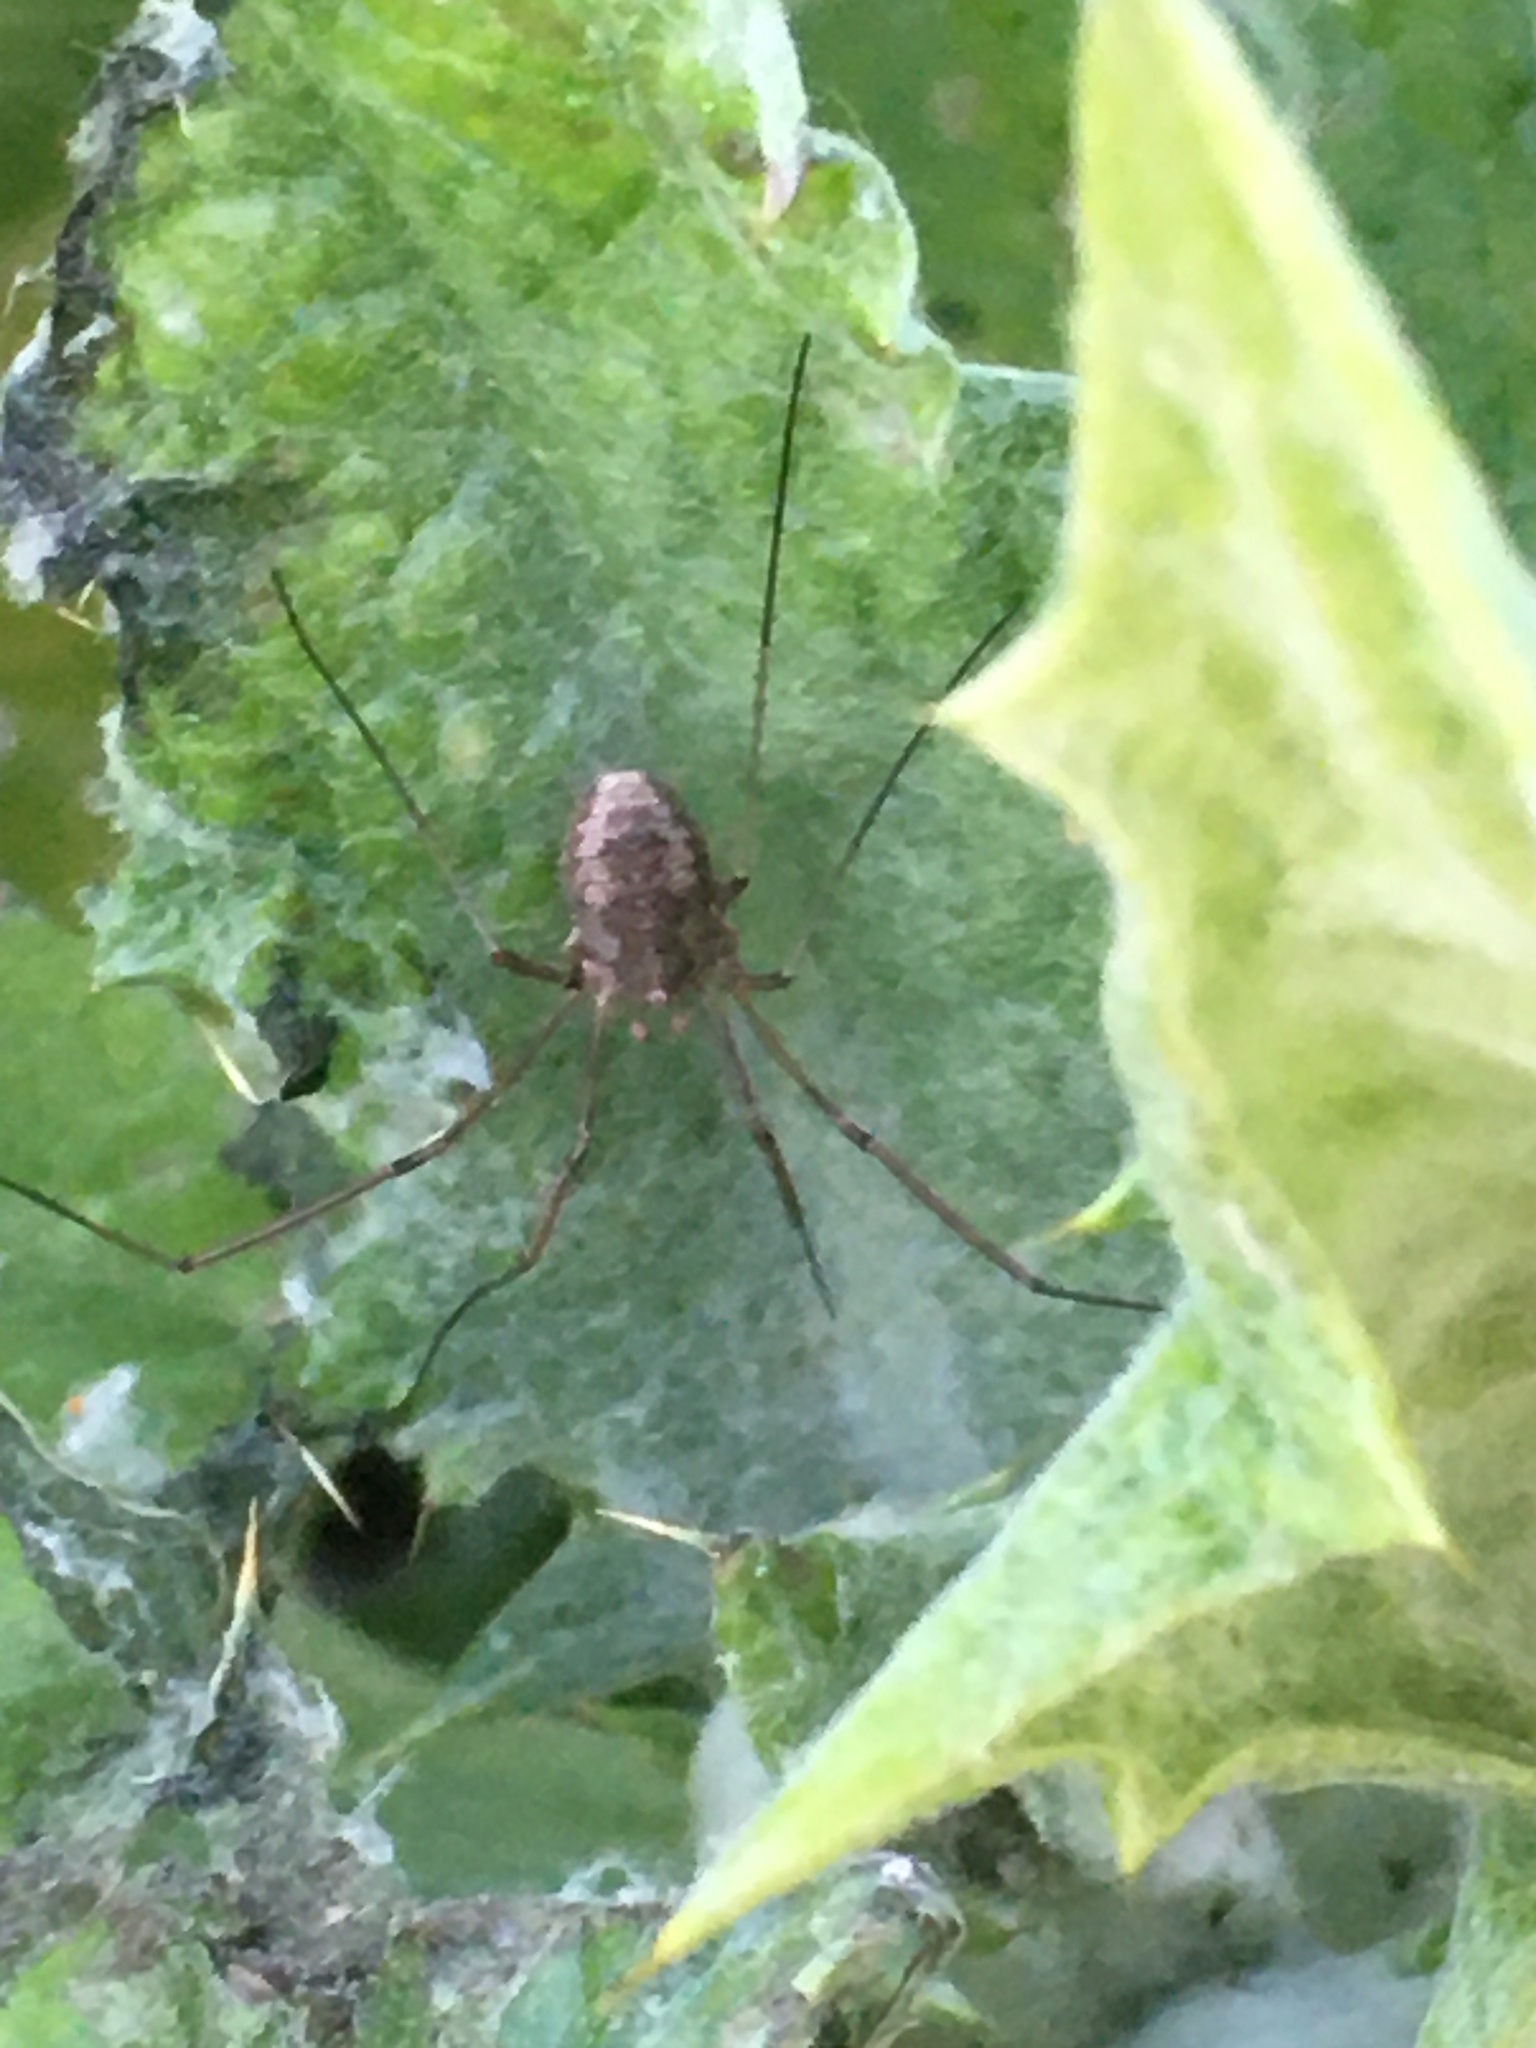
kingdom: Animalia
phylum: Arthropoda
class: Arachnida
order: Opiliones
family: Phalangiidae
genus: Phalangium
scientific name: Phalangium opilio
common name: Daddy longleg
